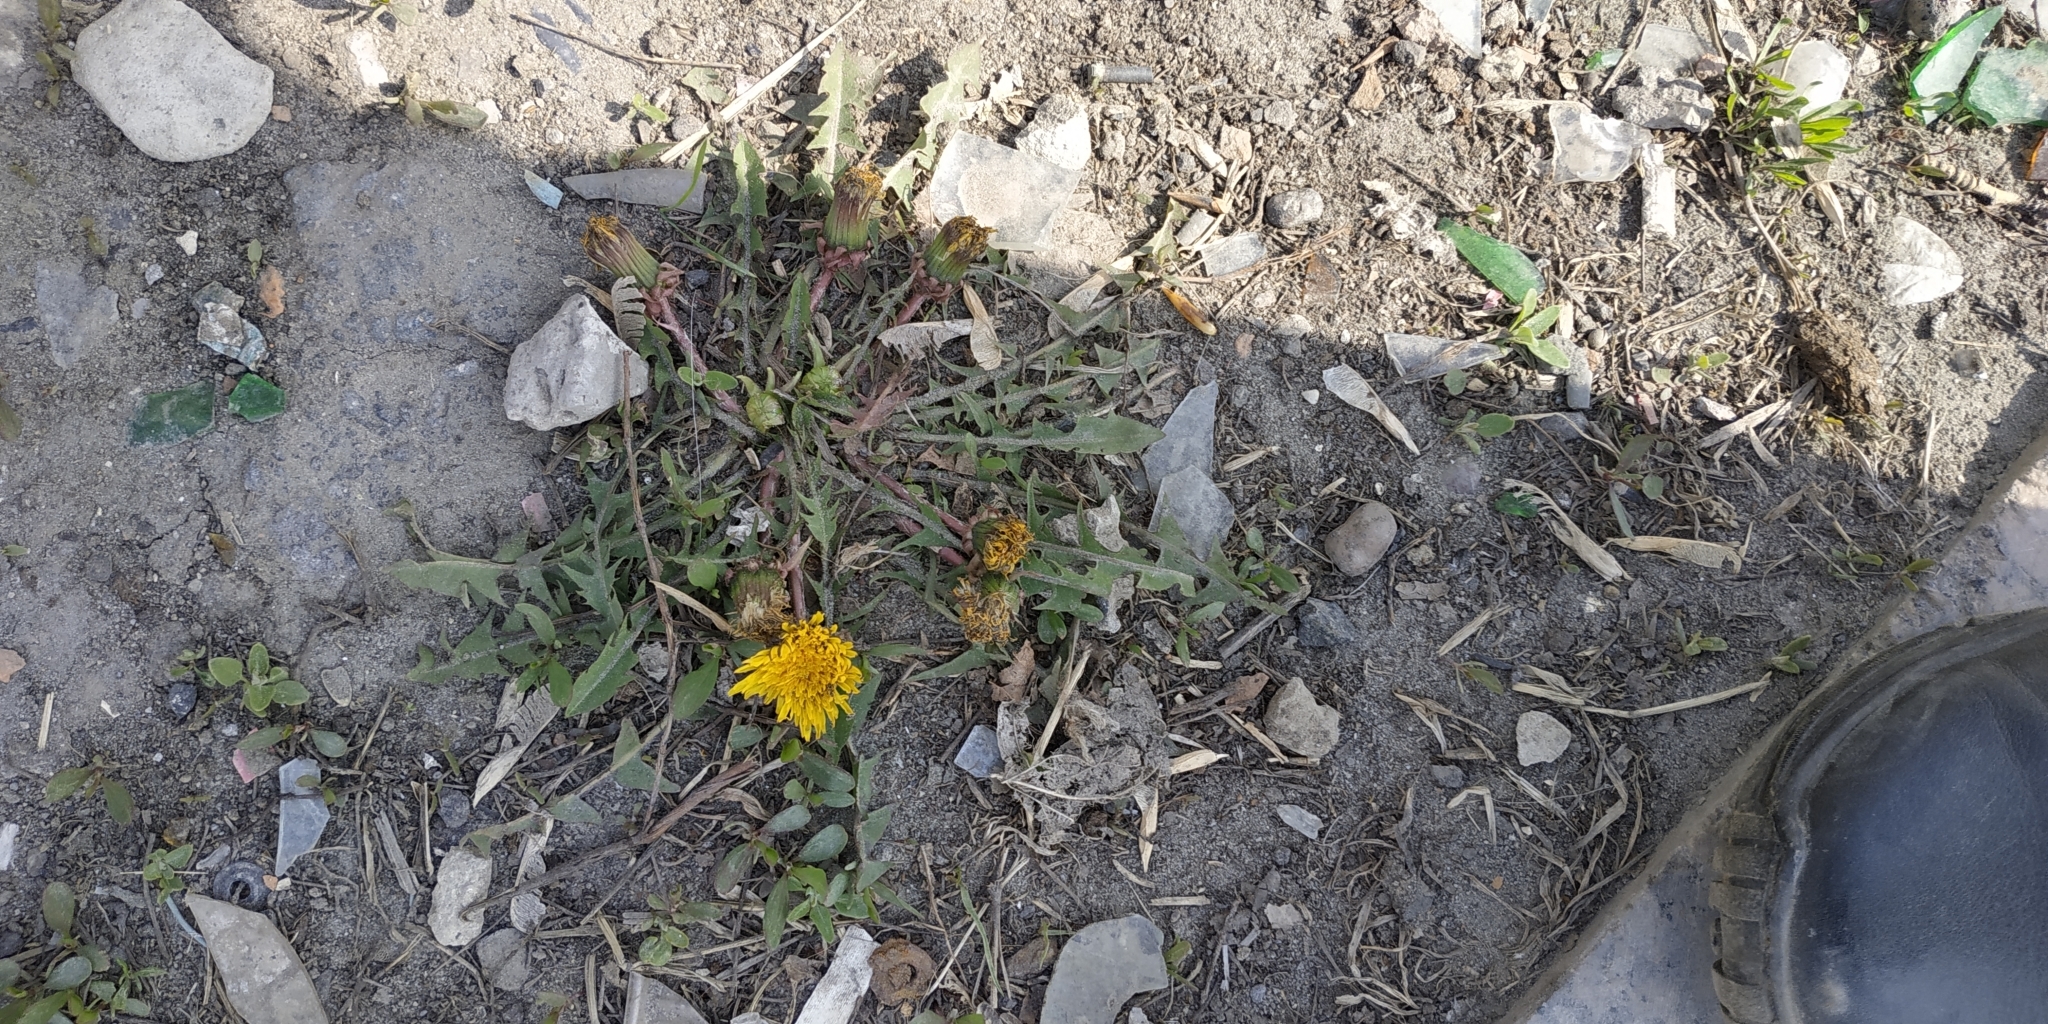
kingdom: Plantae
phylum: Tracheophyta
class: Magnoliopsida
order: Asterales
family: Asteraceae
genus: Taraxacum
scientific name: Taraxacum officinale
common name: Common dandelion
